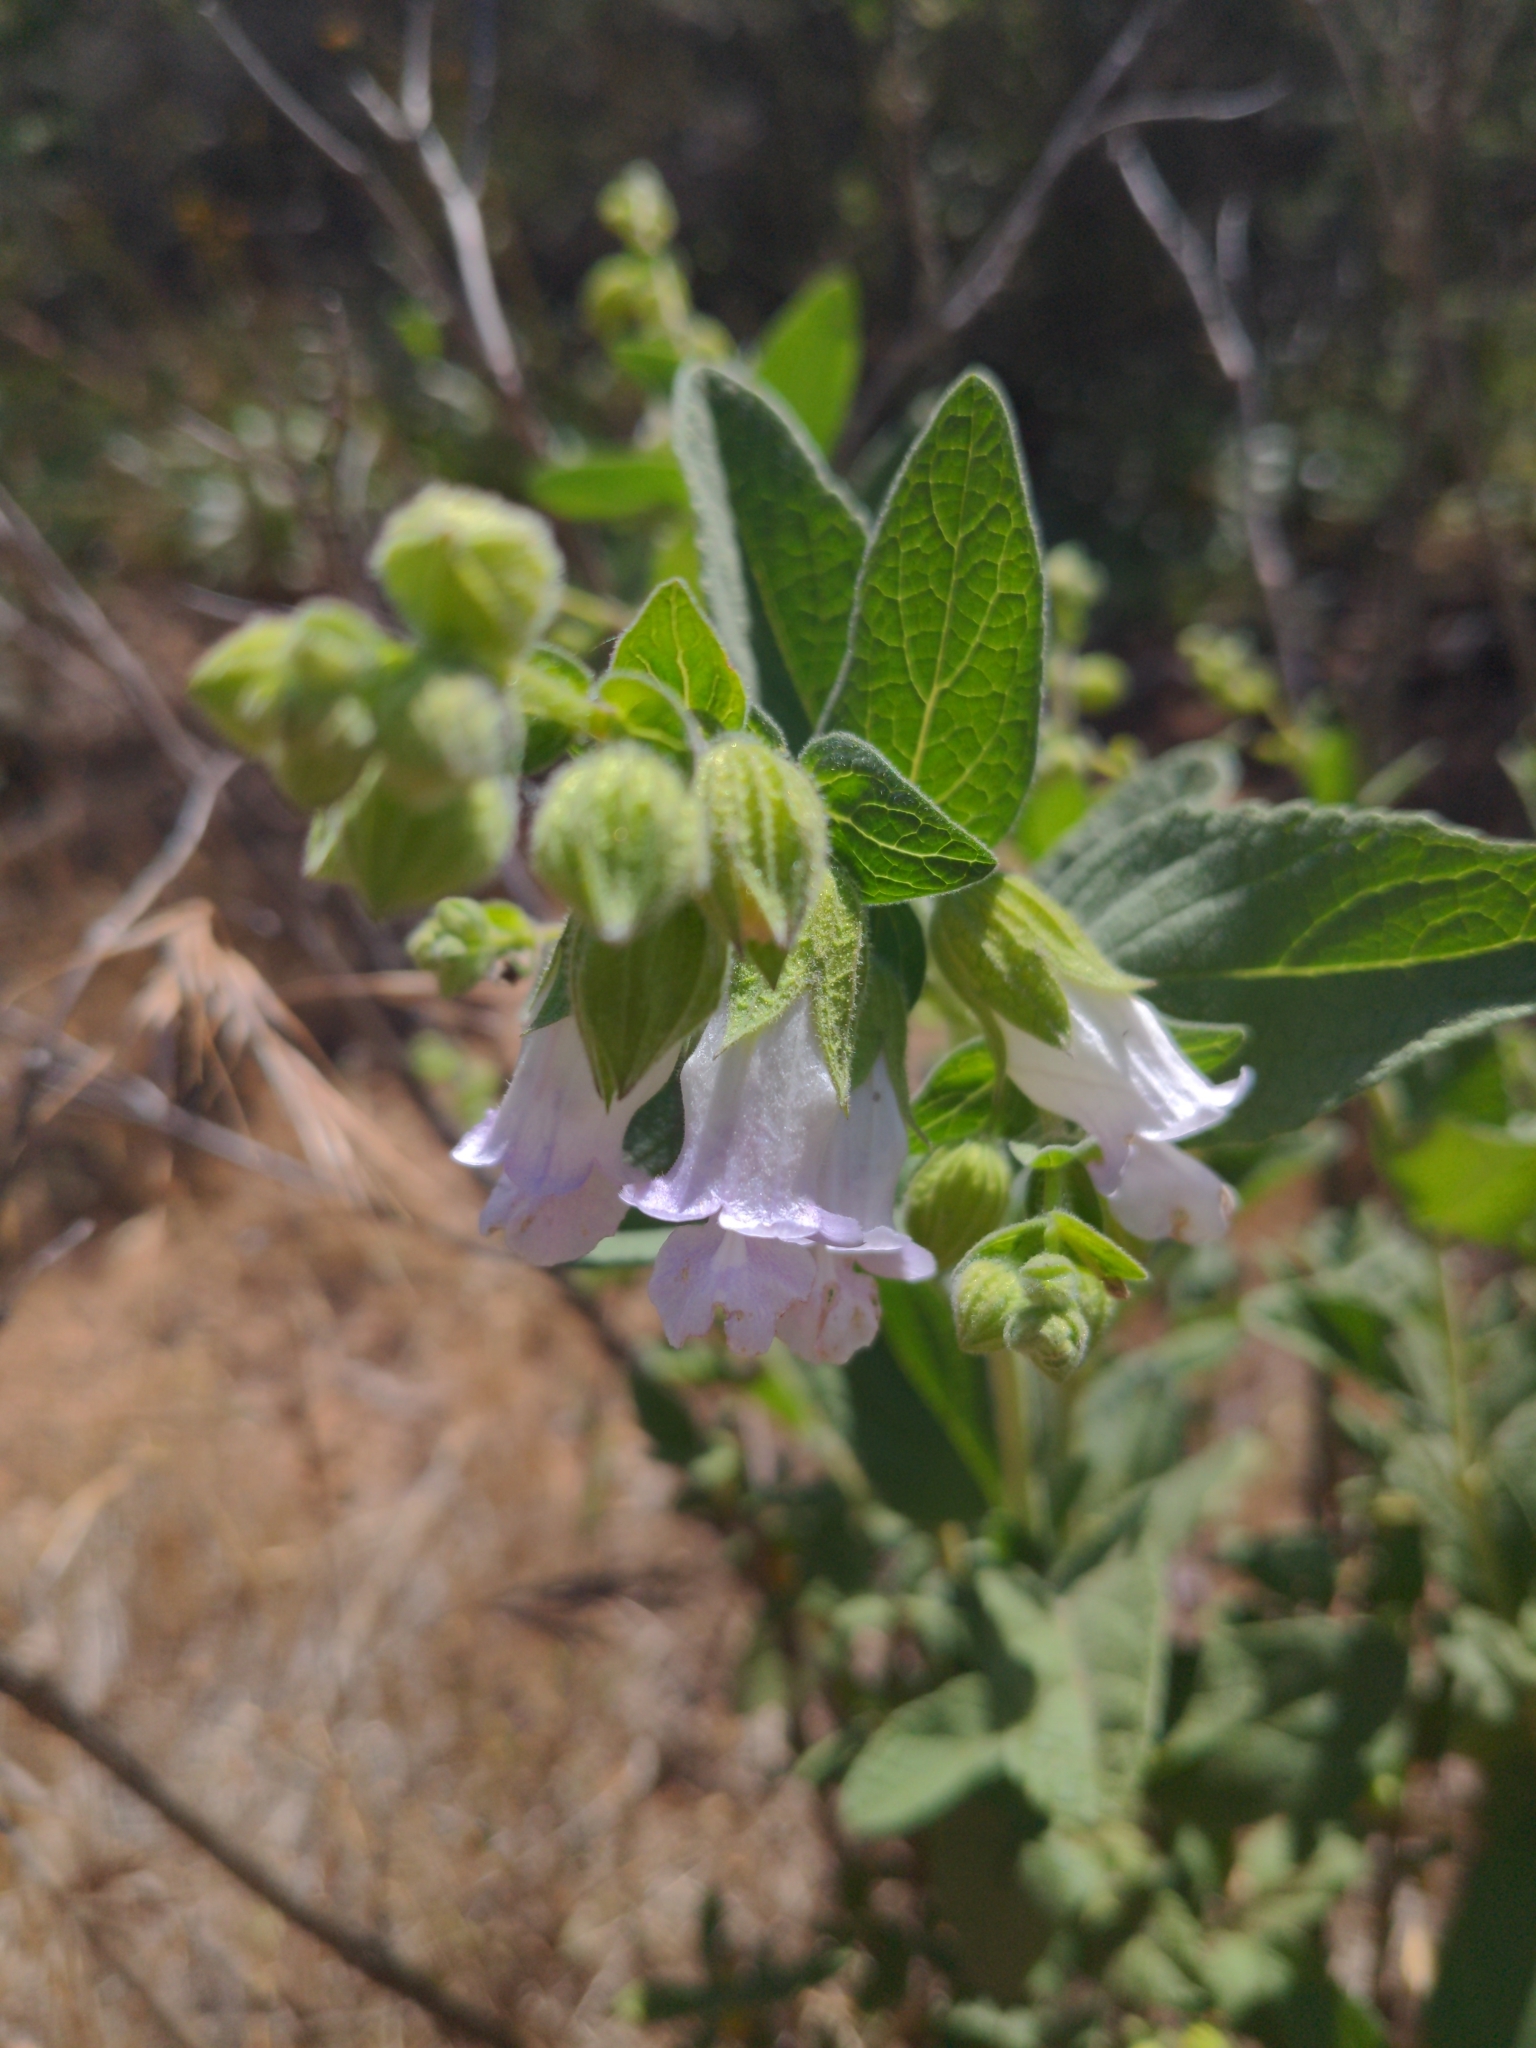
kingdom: Plantae
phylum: Tracheophyta
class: Magnoliopsida
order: Lamiales
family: Lamiaceae
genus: Lepechinia
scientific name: Lepechinia calycina
